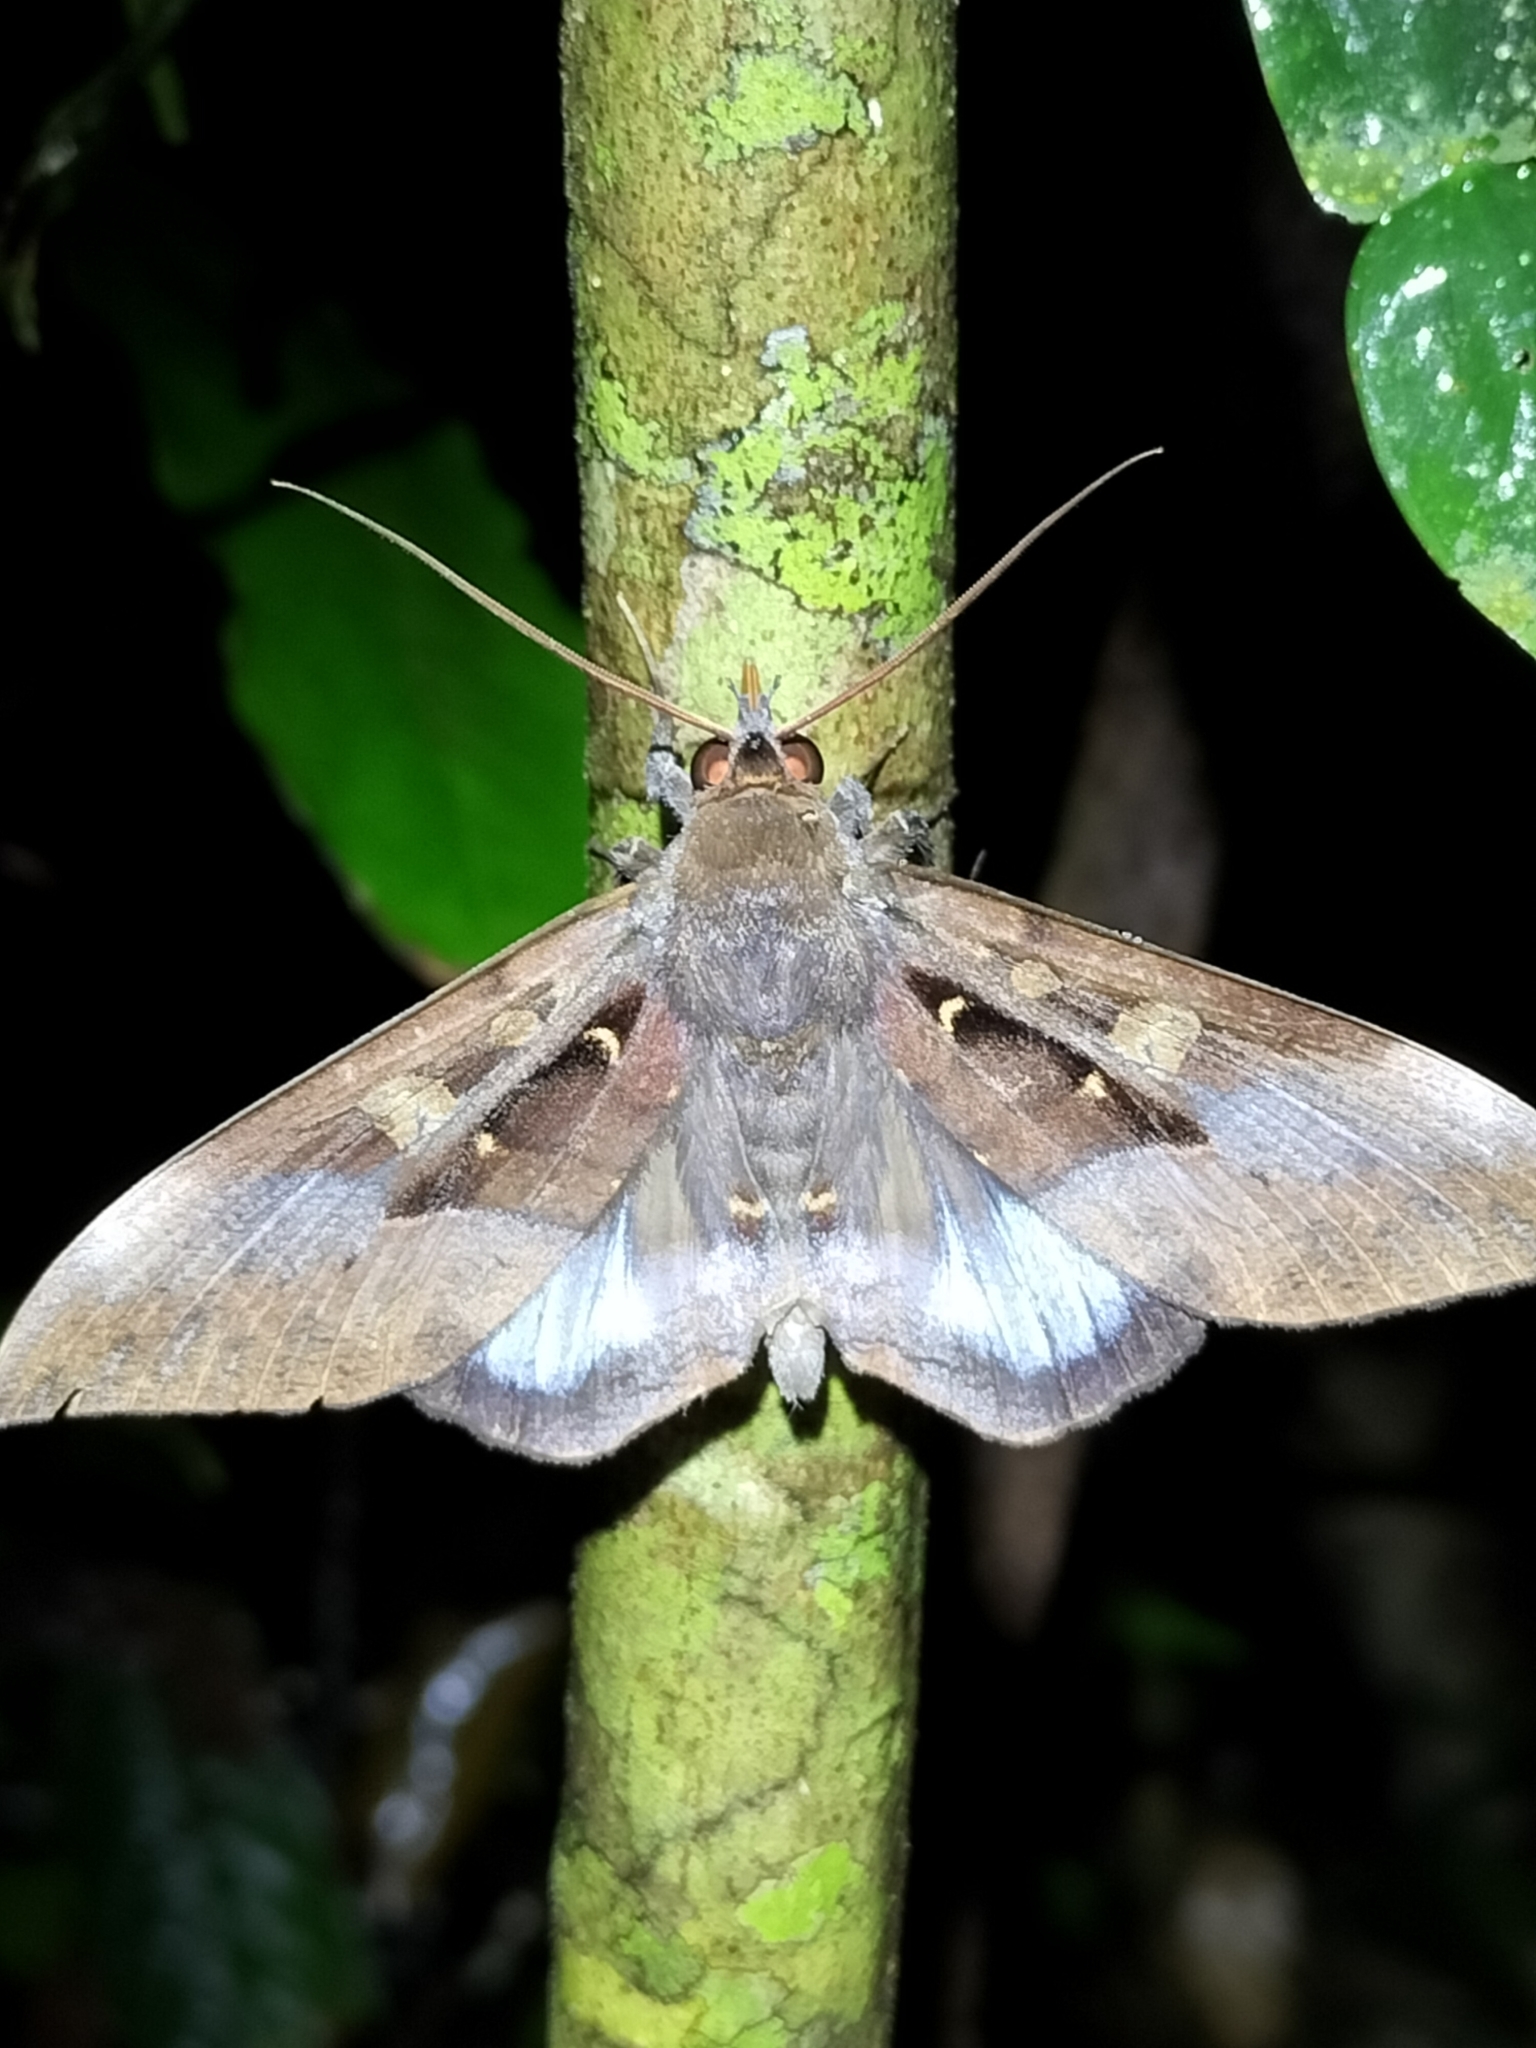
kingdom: Animalia
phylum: Arthropoda
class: Insecta
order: Lepidoptera
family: Erebidae
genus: Ischyja
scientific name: Ischyja manlia
